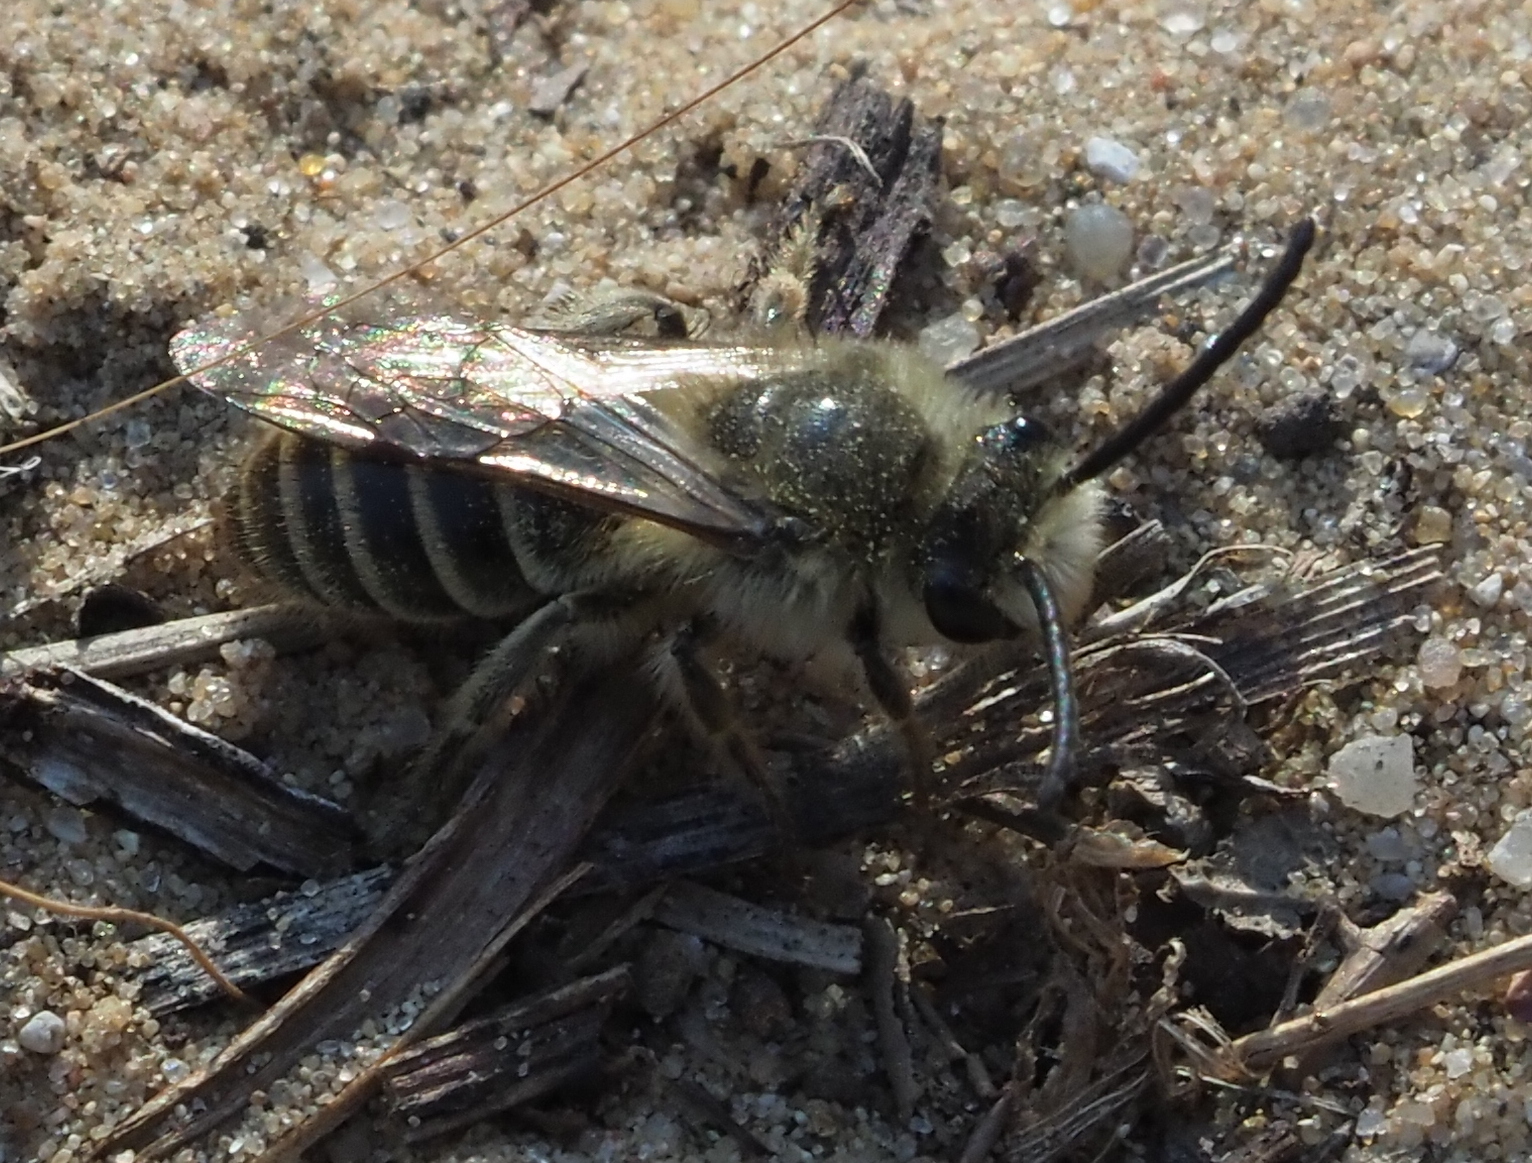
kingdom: Animalia
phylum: Arthropoda
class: Insecta
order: Hymenoptera
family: Colletidae
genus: Colletes
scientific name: Colletes inaequalis
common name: Unequal cellophane bee
